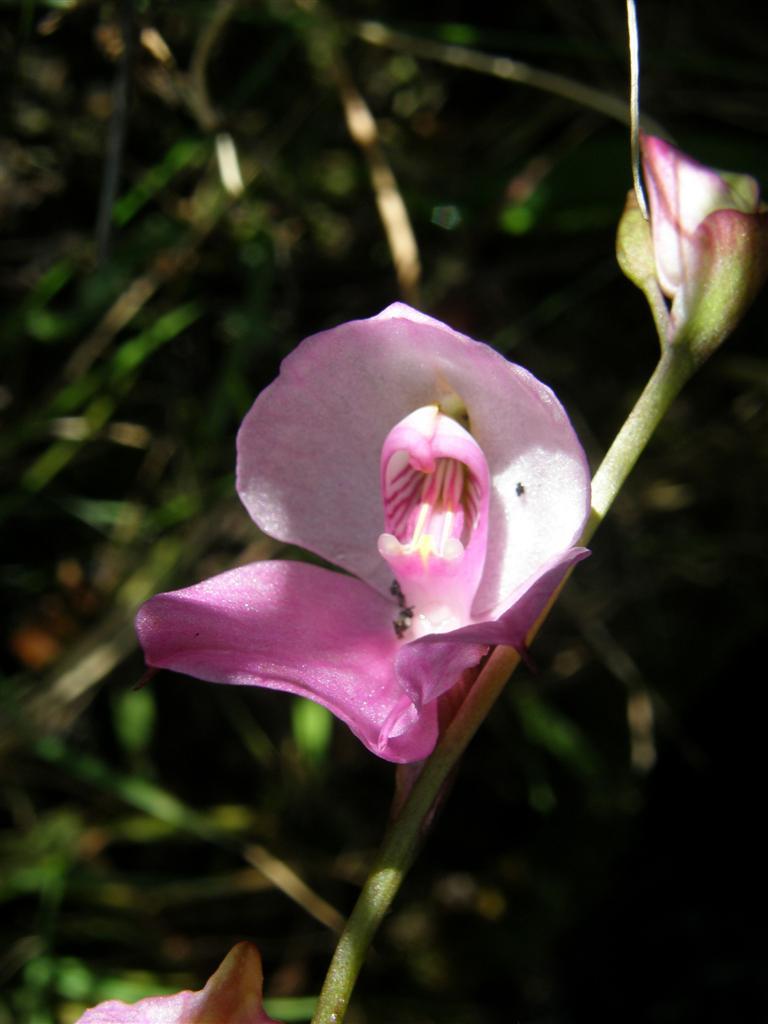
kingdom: Plantae
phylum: Tracheophyta
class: Liliopsida
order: Asparagales
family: Orchidaceae
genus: Disa
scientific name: Disa racemosa
